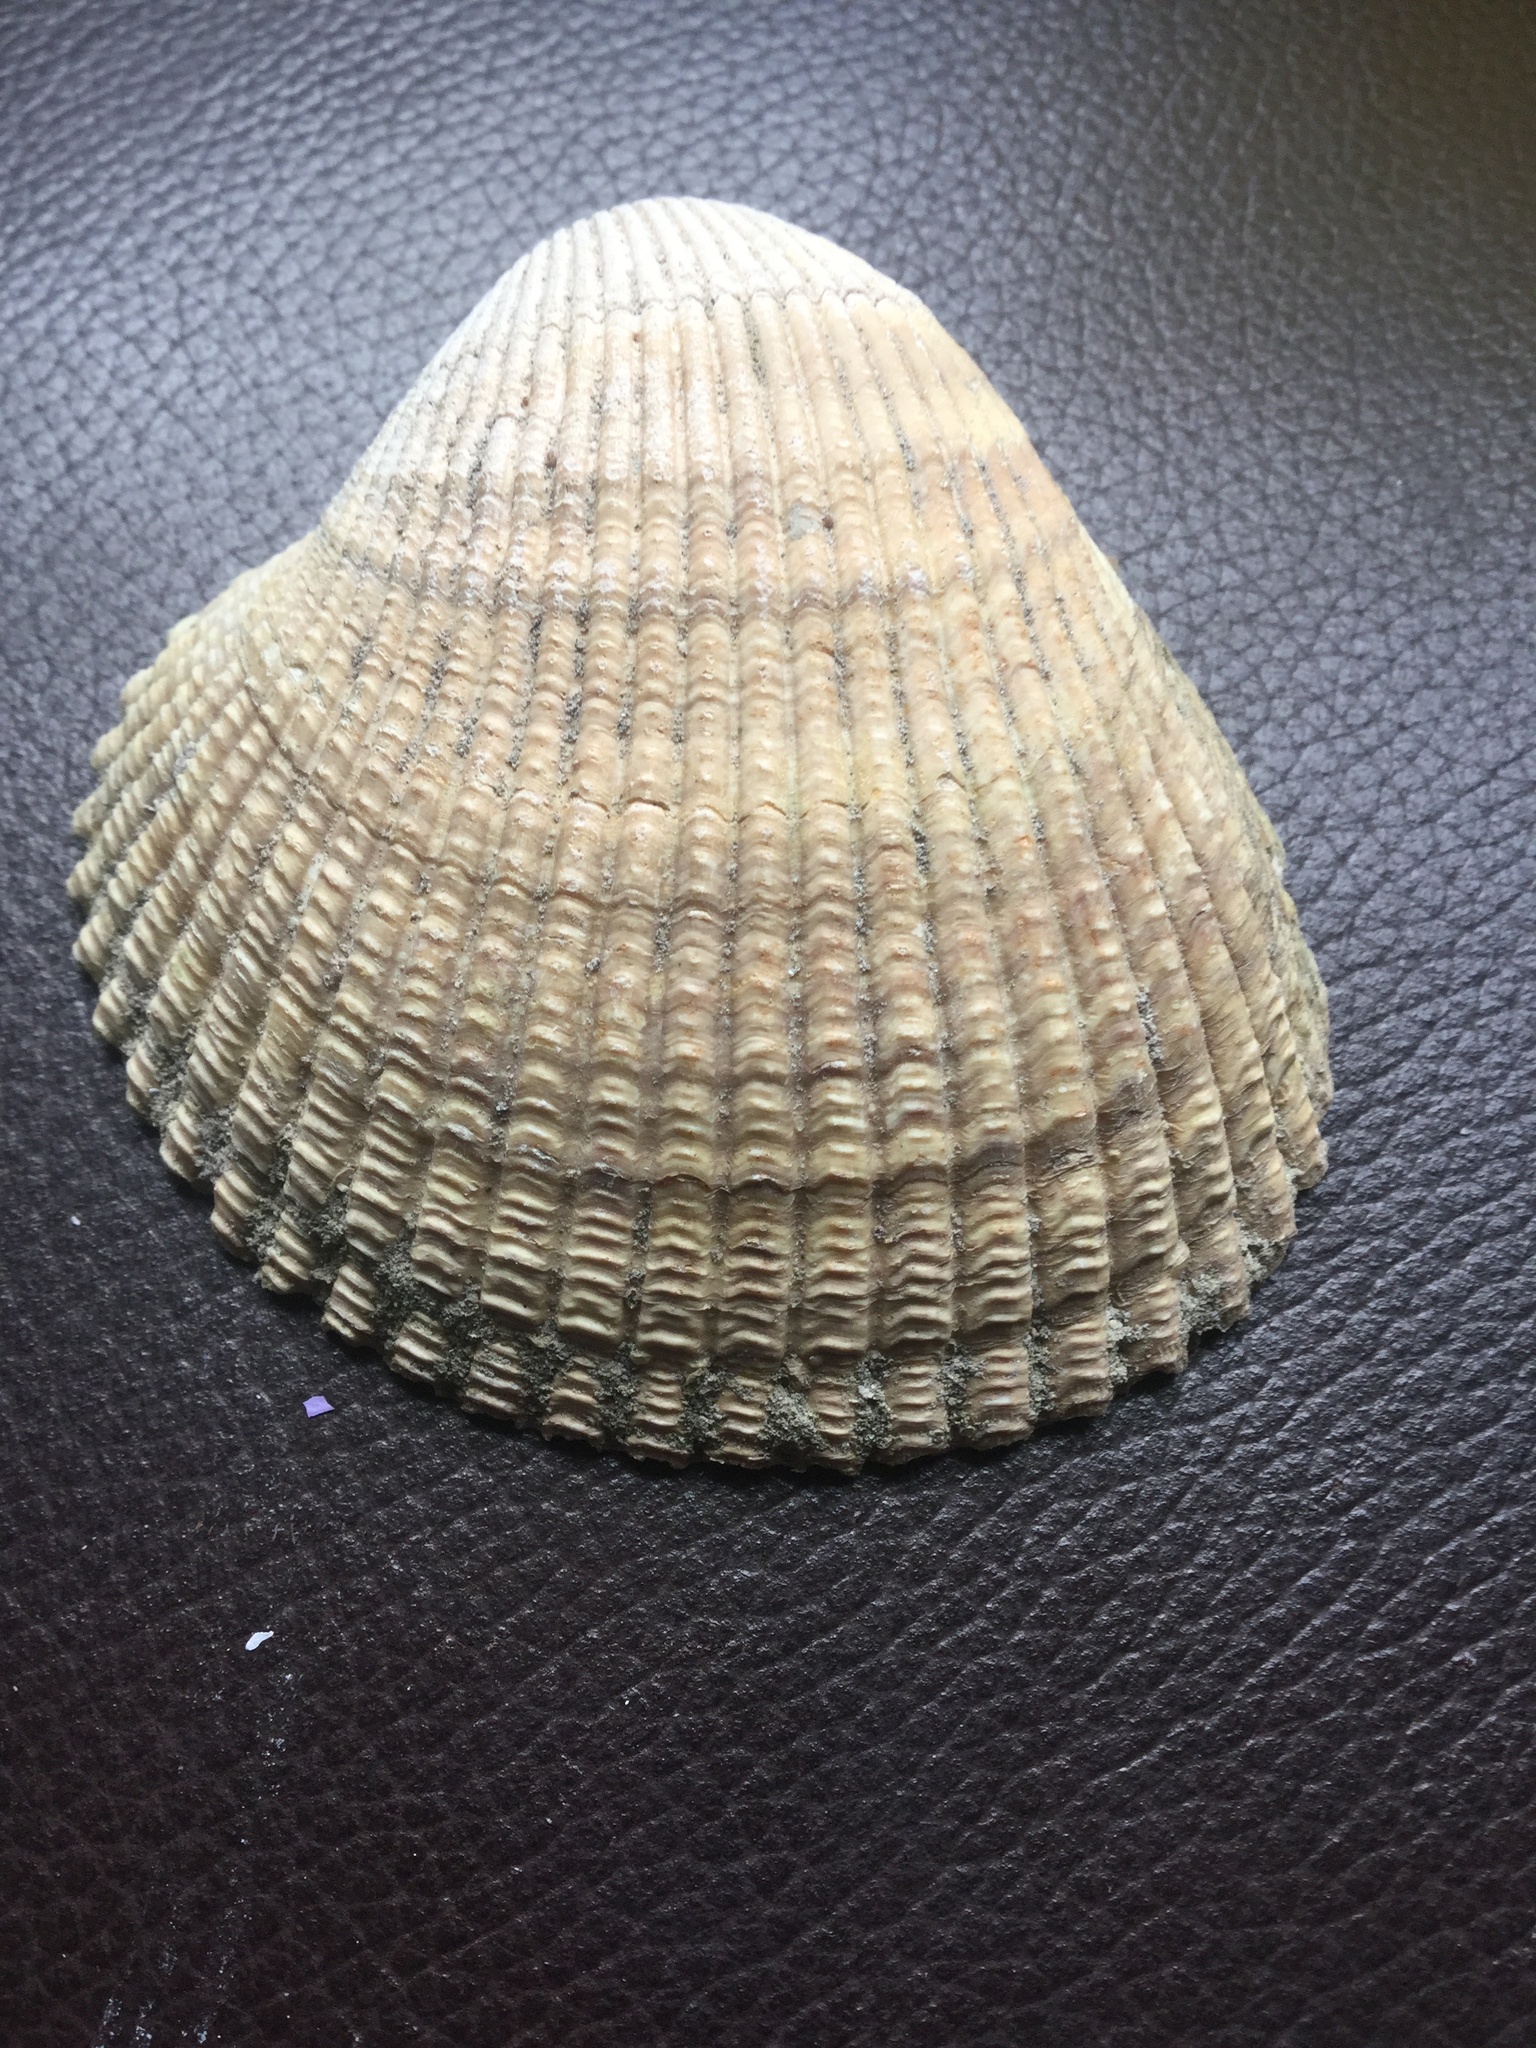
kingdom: Animalia
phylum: Mollusca
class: Bivalvia
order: Cardiida
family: Cardiidae
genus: Clinocardium
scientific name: Clinocardium nuttallii
